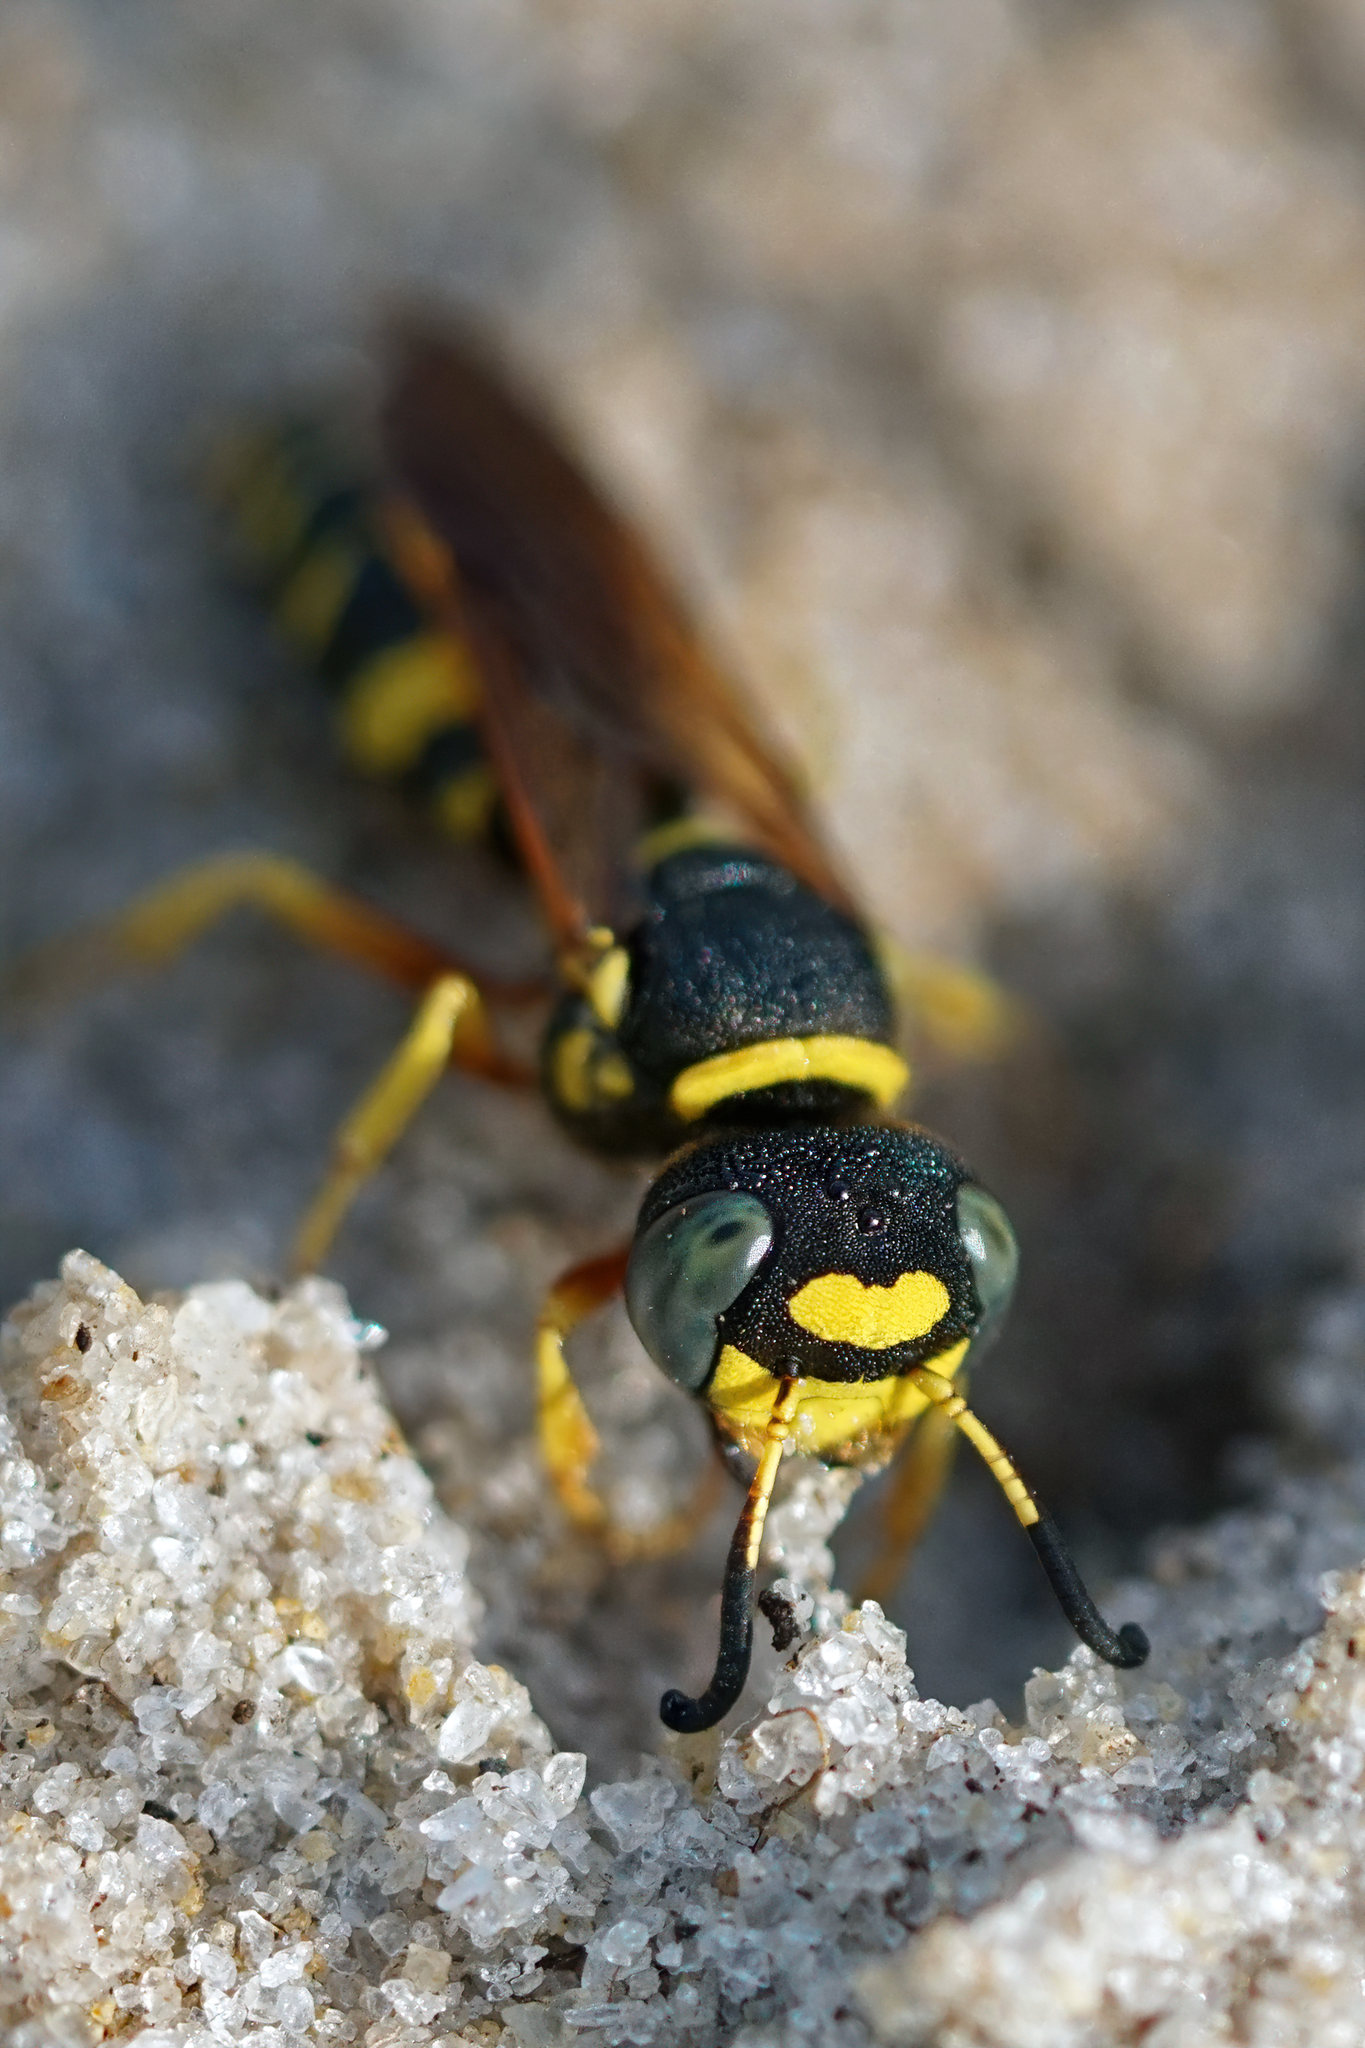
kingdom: Animalia
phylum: Arthropoda
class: Insecta
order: Hymenoptera
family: Crabronidae
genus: Philanthus
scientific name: Philanthus ventilabris
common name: Bee-killer wasp
